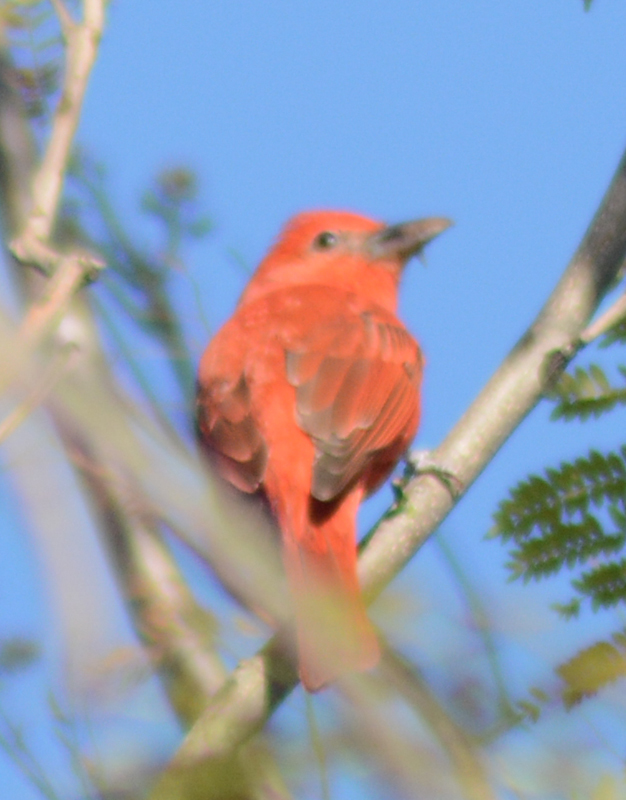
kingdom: Animalia
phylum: Chordata
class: Aves
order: Passeriformes
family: Cardinalidae
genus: Piranga
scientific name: Piranga rubra
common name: Summer tanager
